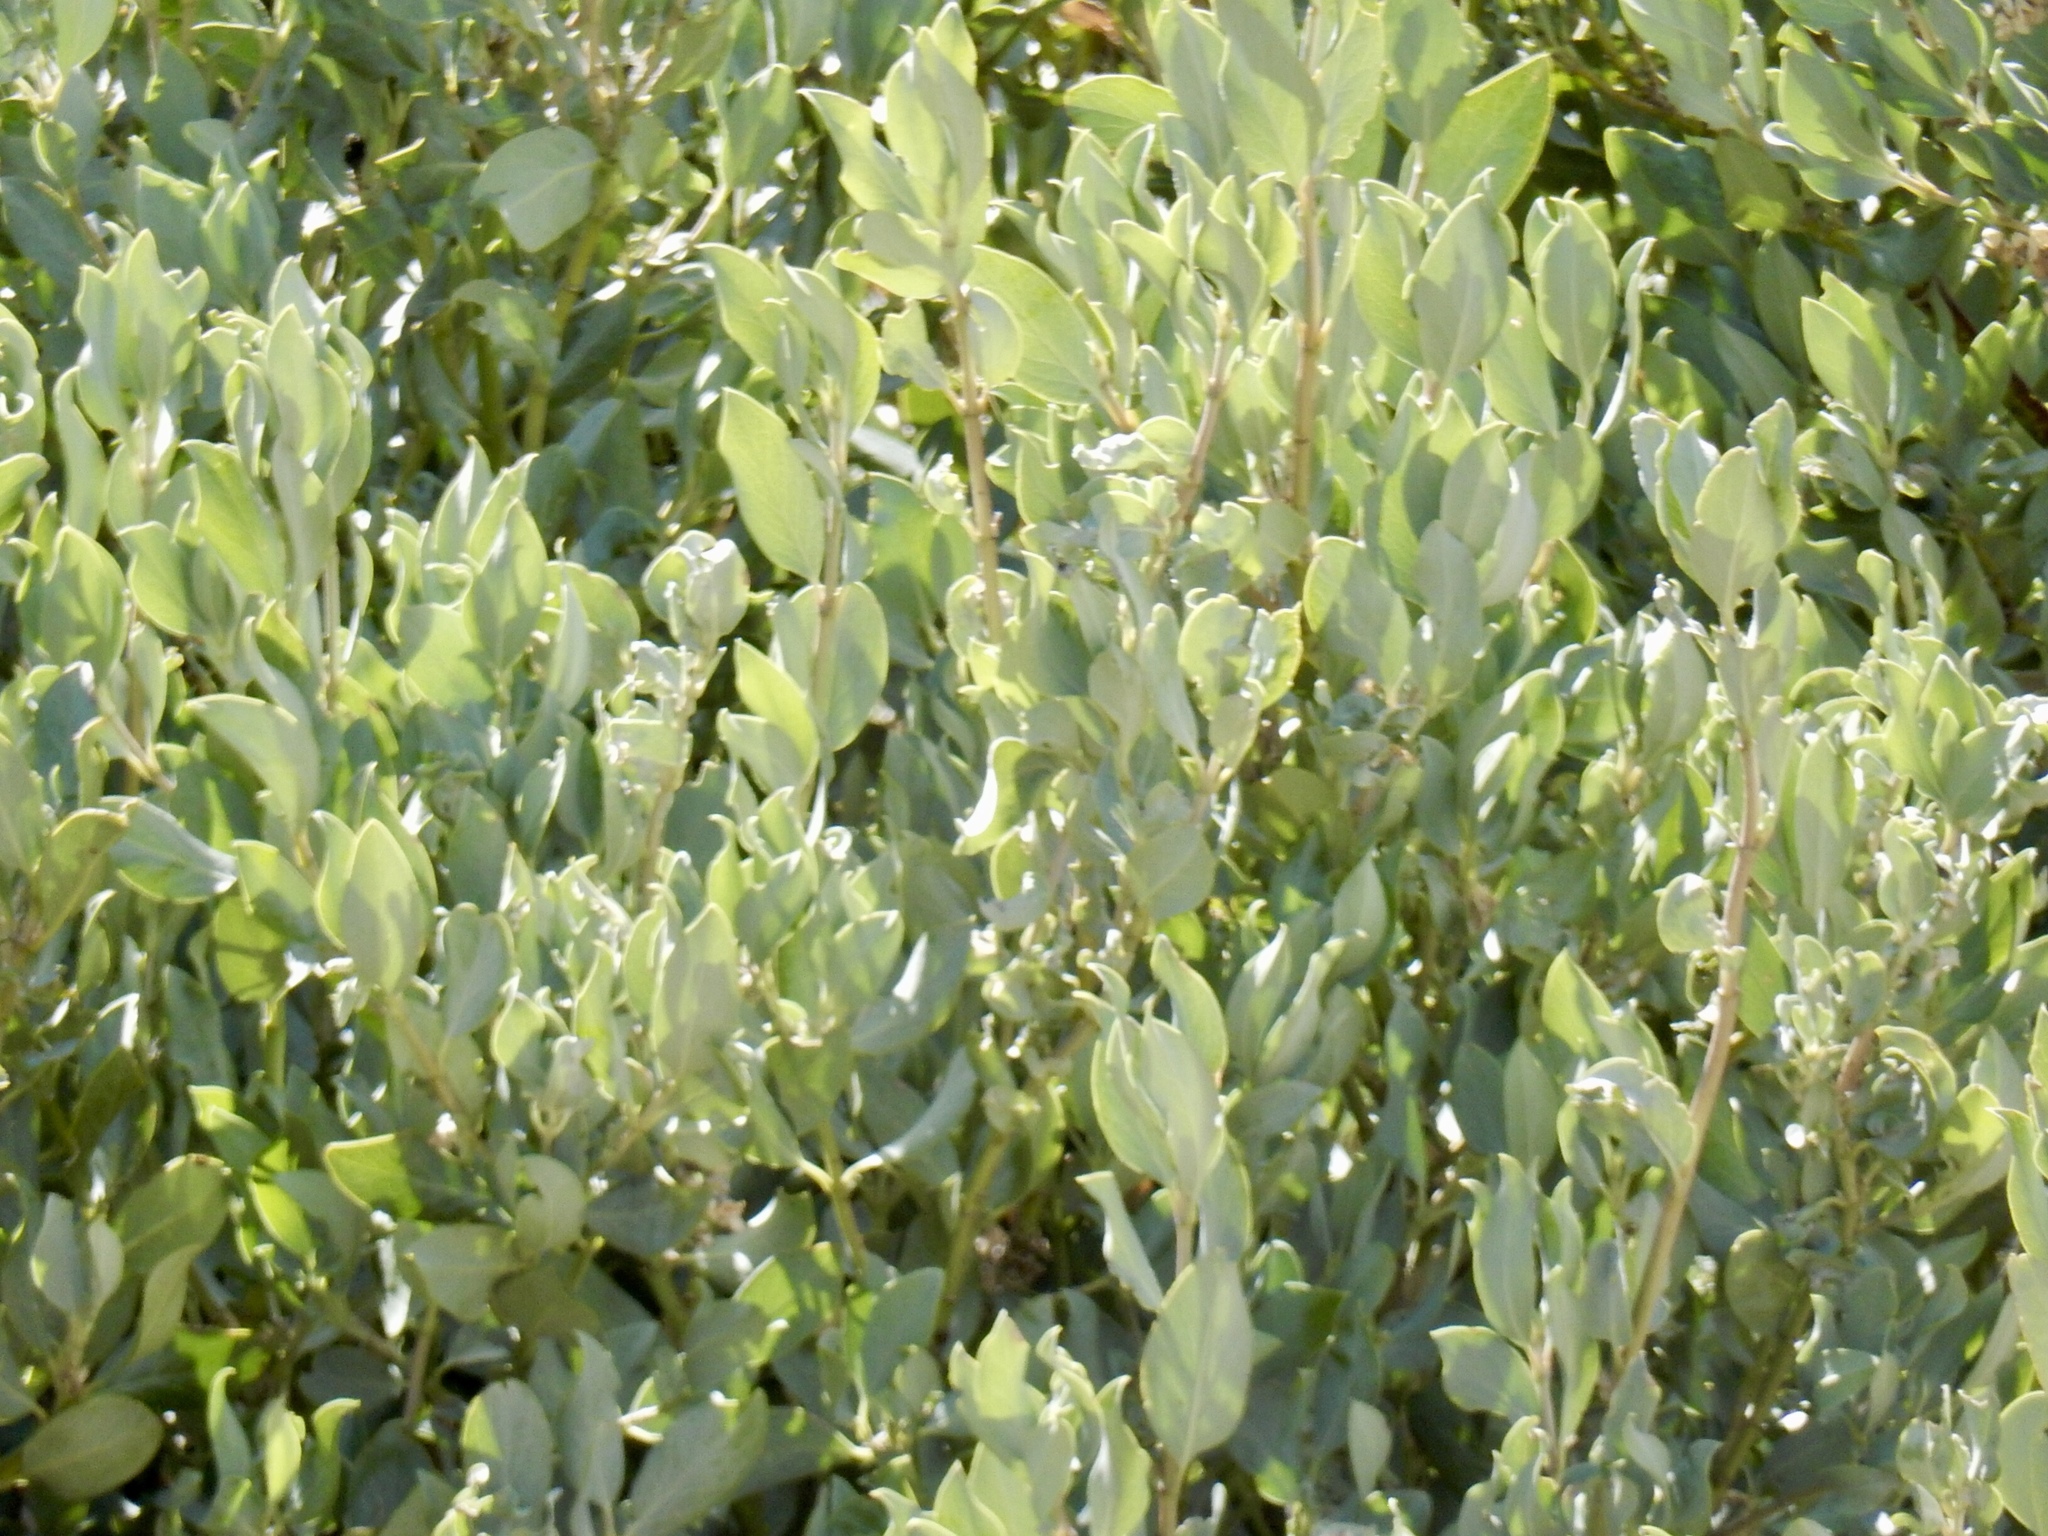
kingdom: Plantae
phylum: Tracheophyta
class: Magnoliopsida
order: Garryales
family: Garryaceae
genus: Garrya
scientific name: Garrya flavescens
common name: Ashy silk-tassel
